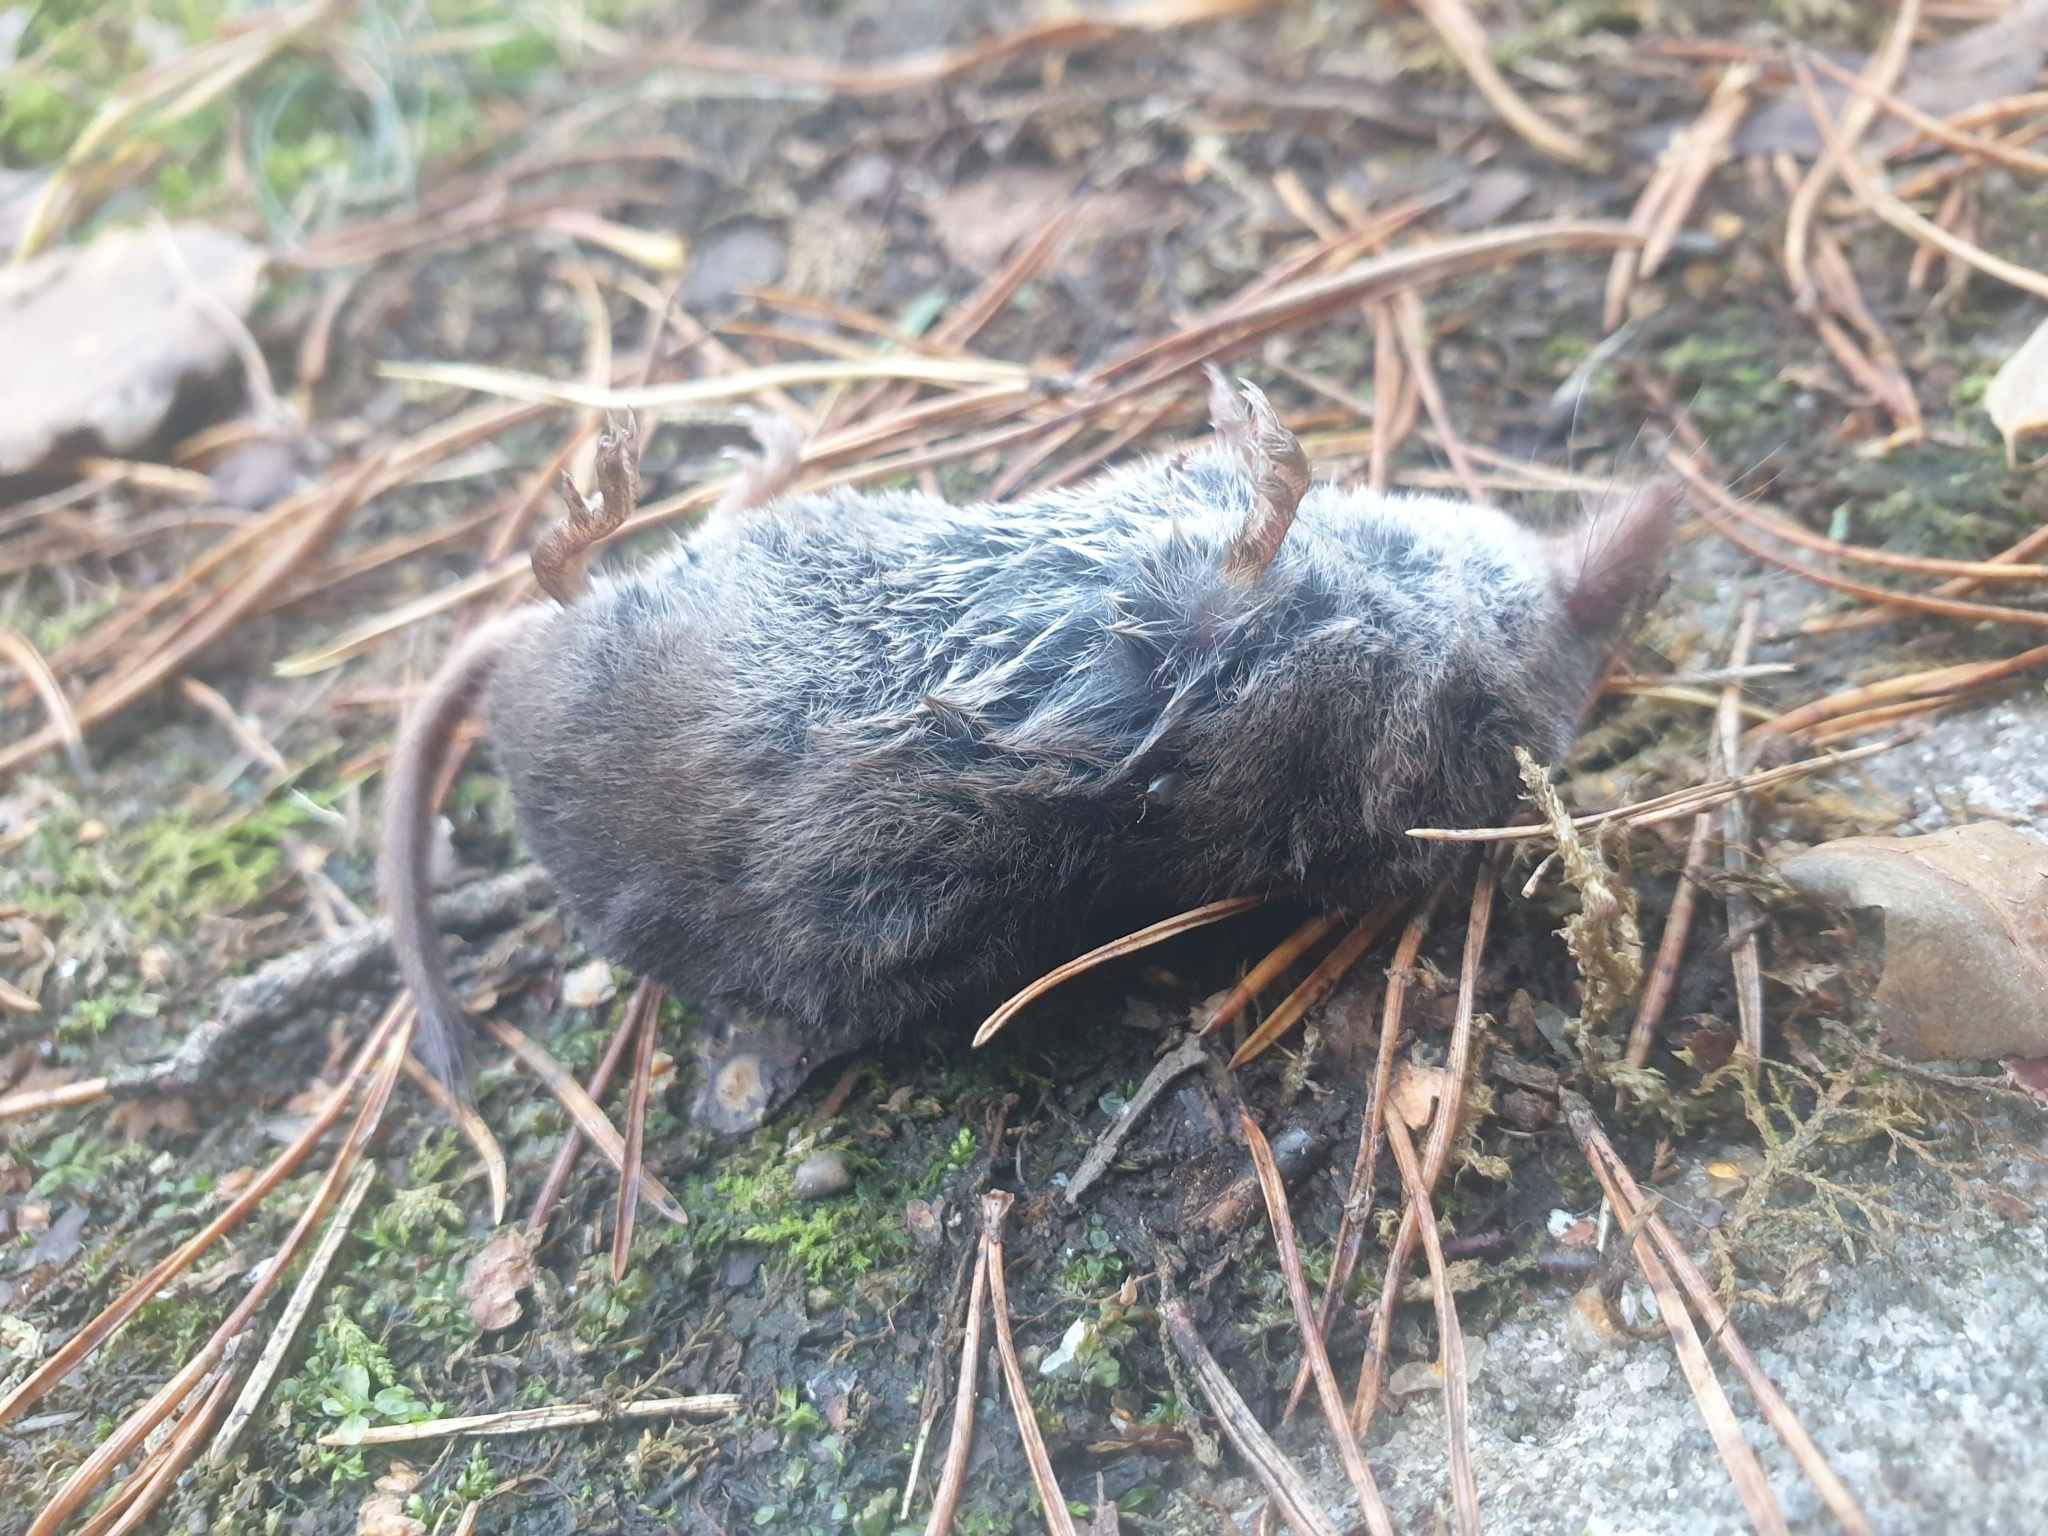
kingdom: Animalia
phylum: Chordata
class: Mammalia
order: Soricomorpha
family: Soricidae
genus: Sorex
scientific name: Sorex araneus
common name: Common shrew
